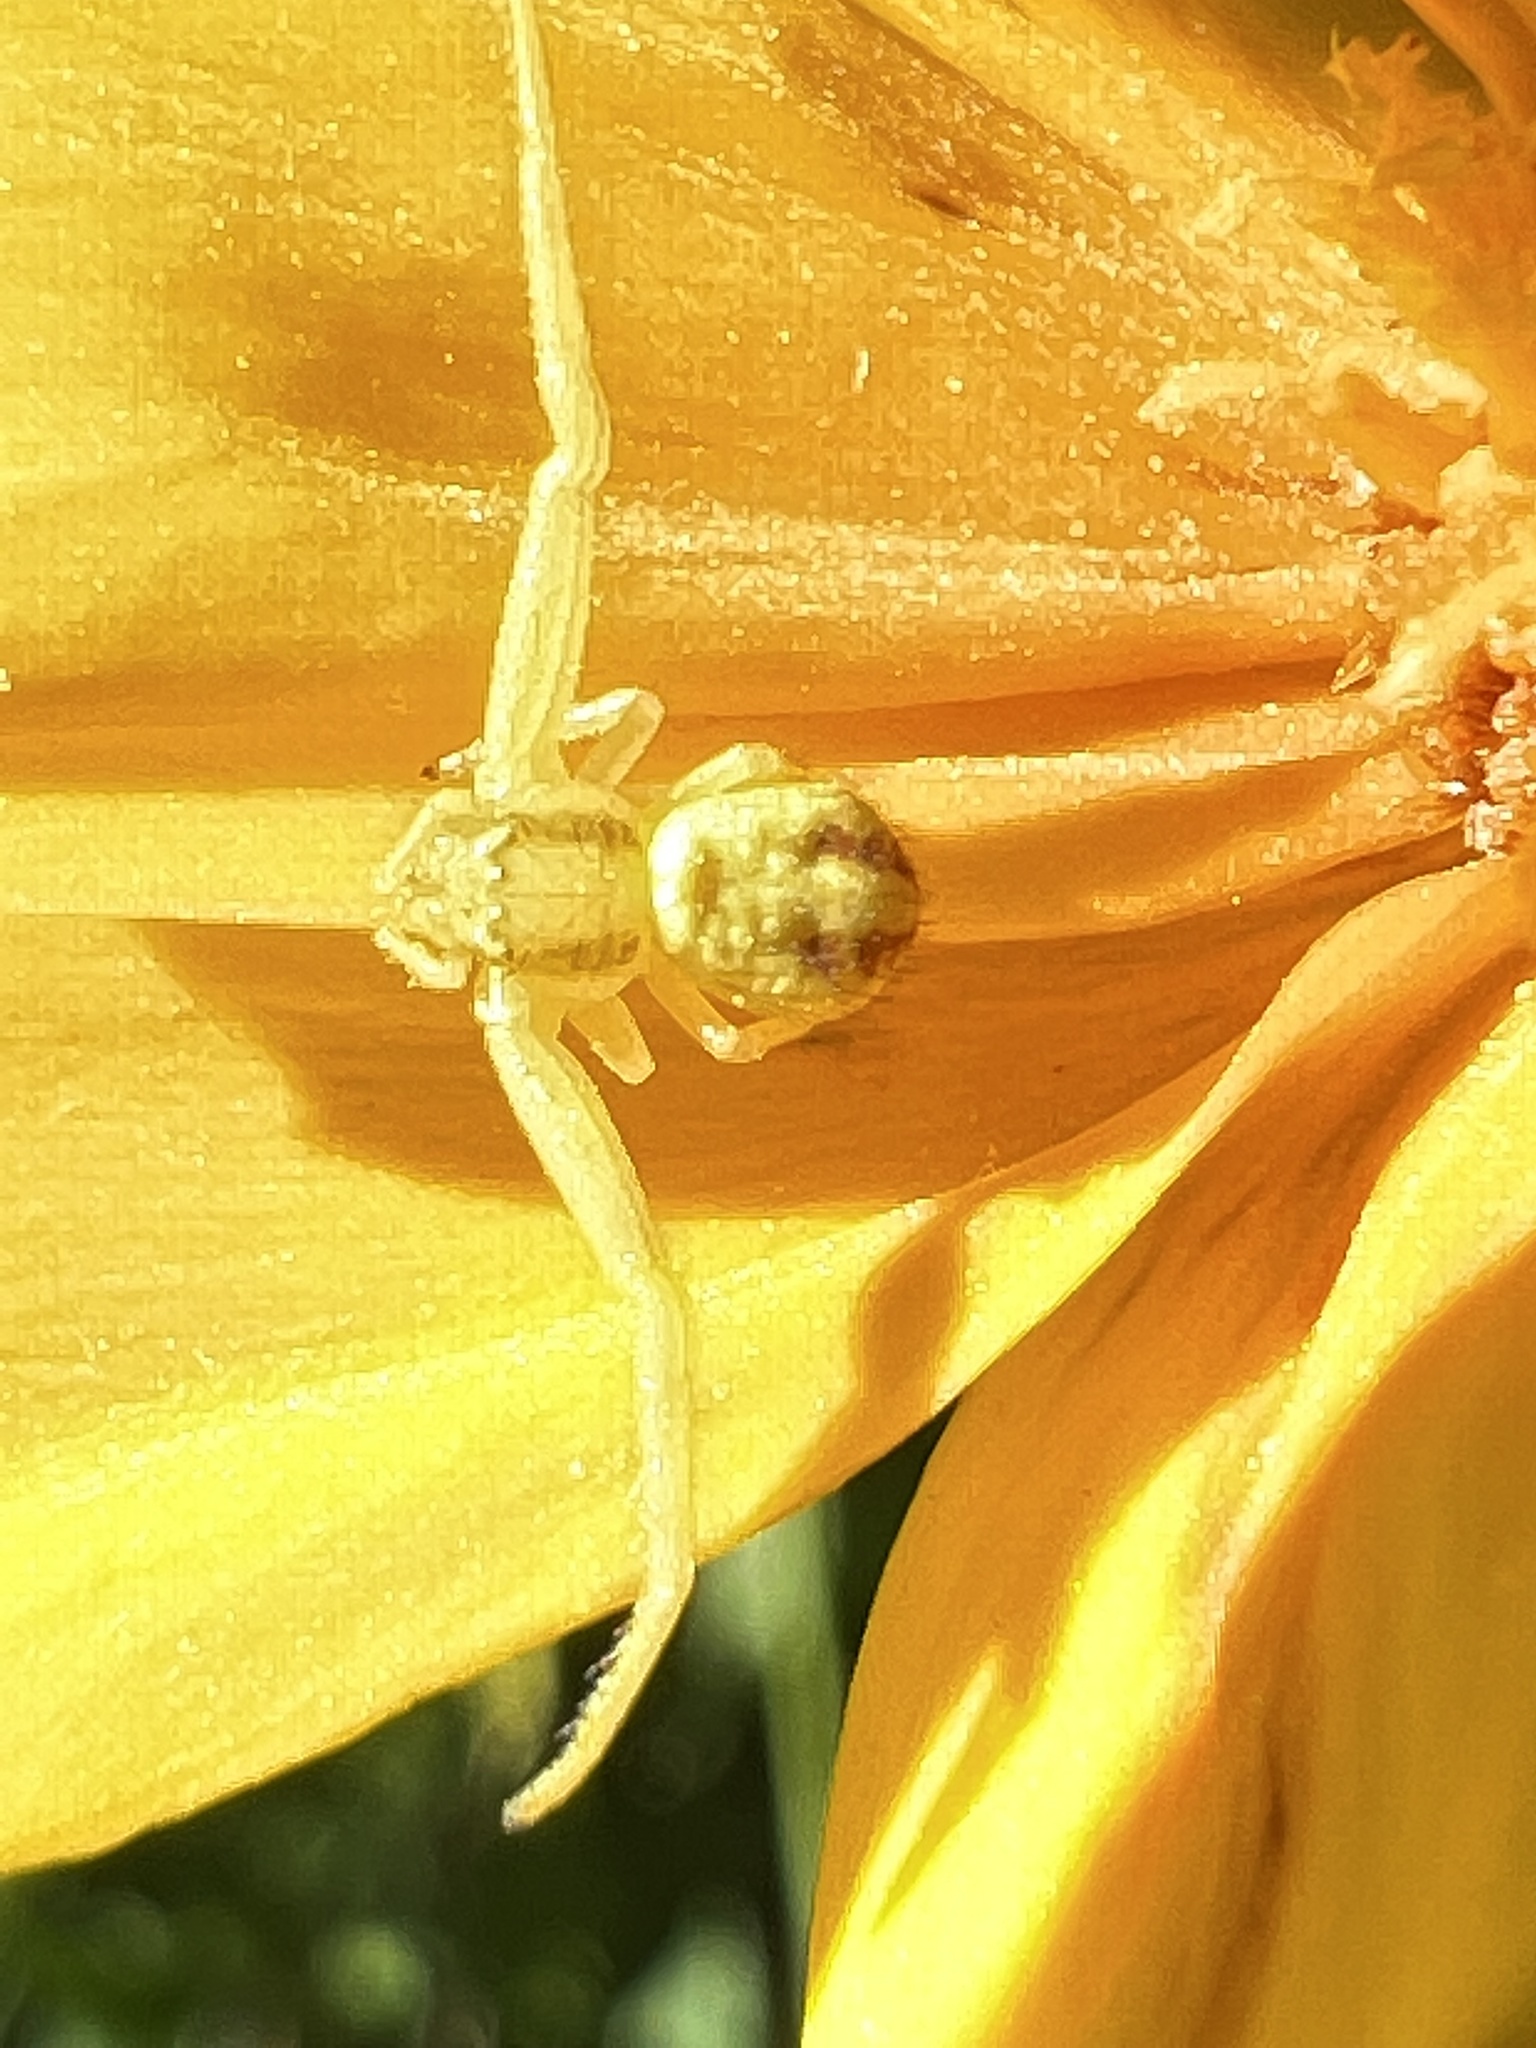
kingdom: Animalia
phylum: Arthropoda
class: Arachnida
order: Araneae
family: Thomisidae
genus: Mecaphesa
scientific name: Mecaphesa asperata
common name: Crab spiders
